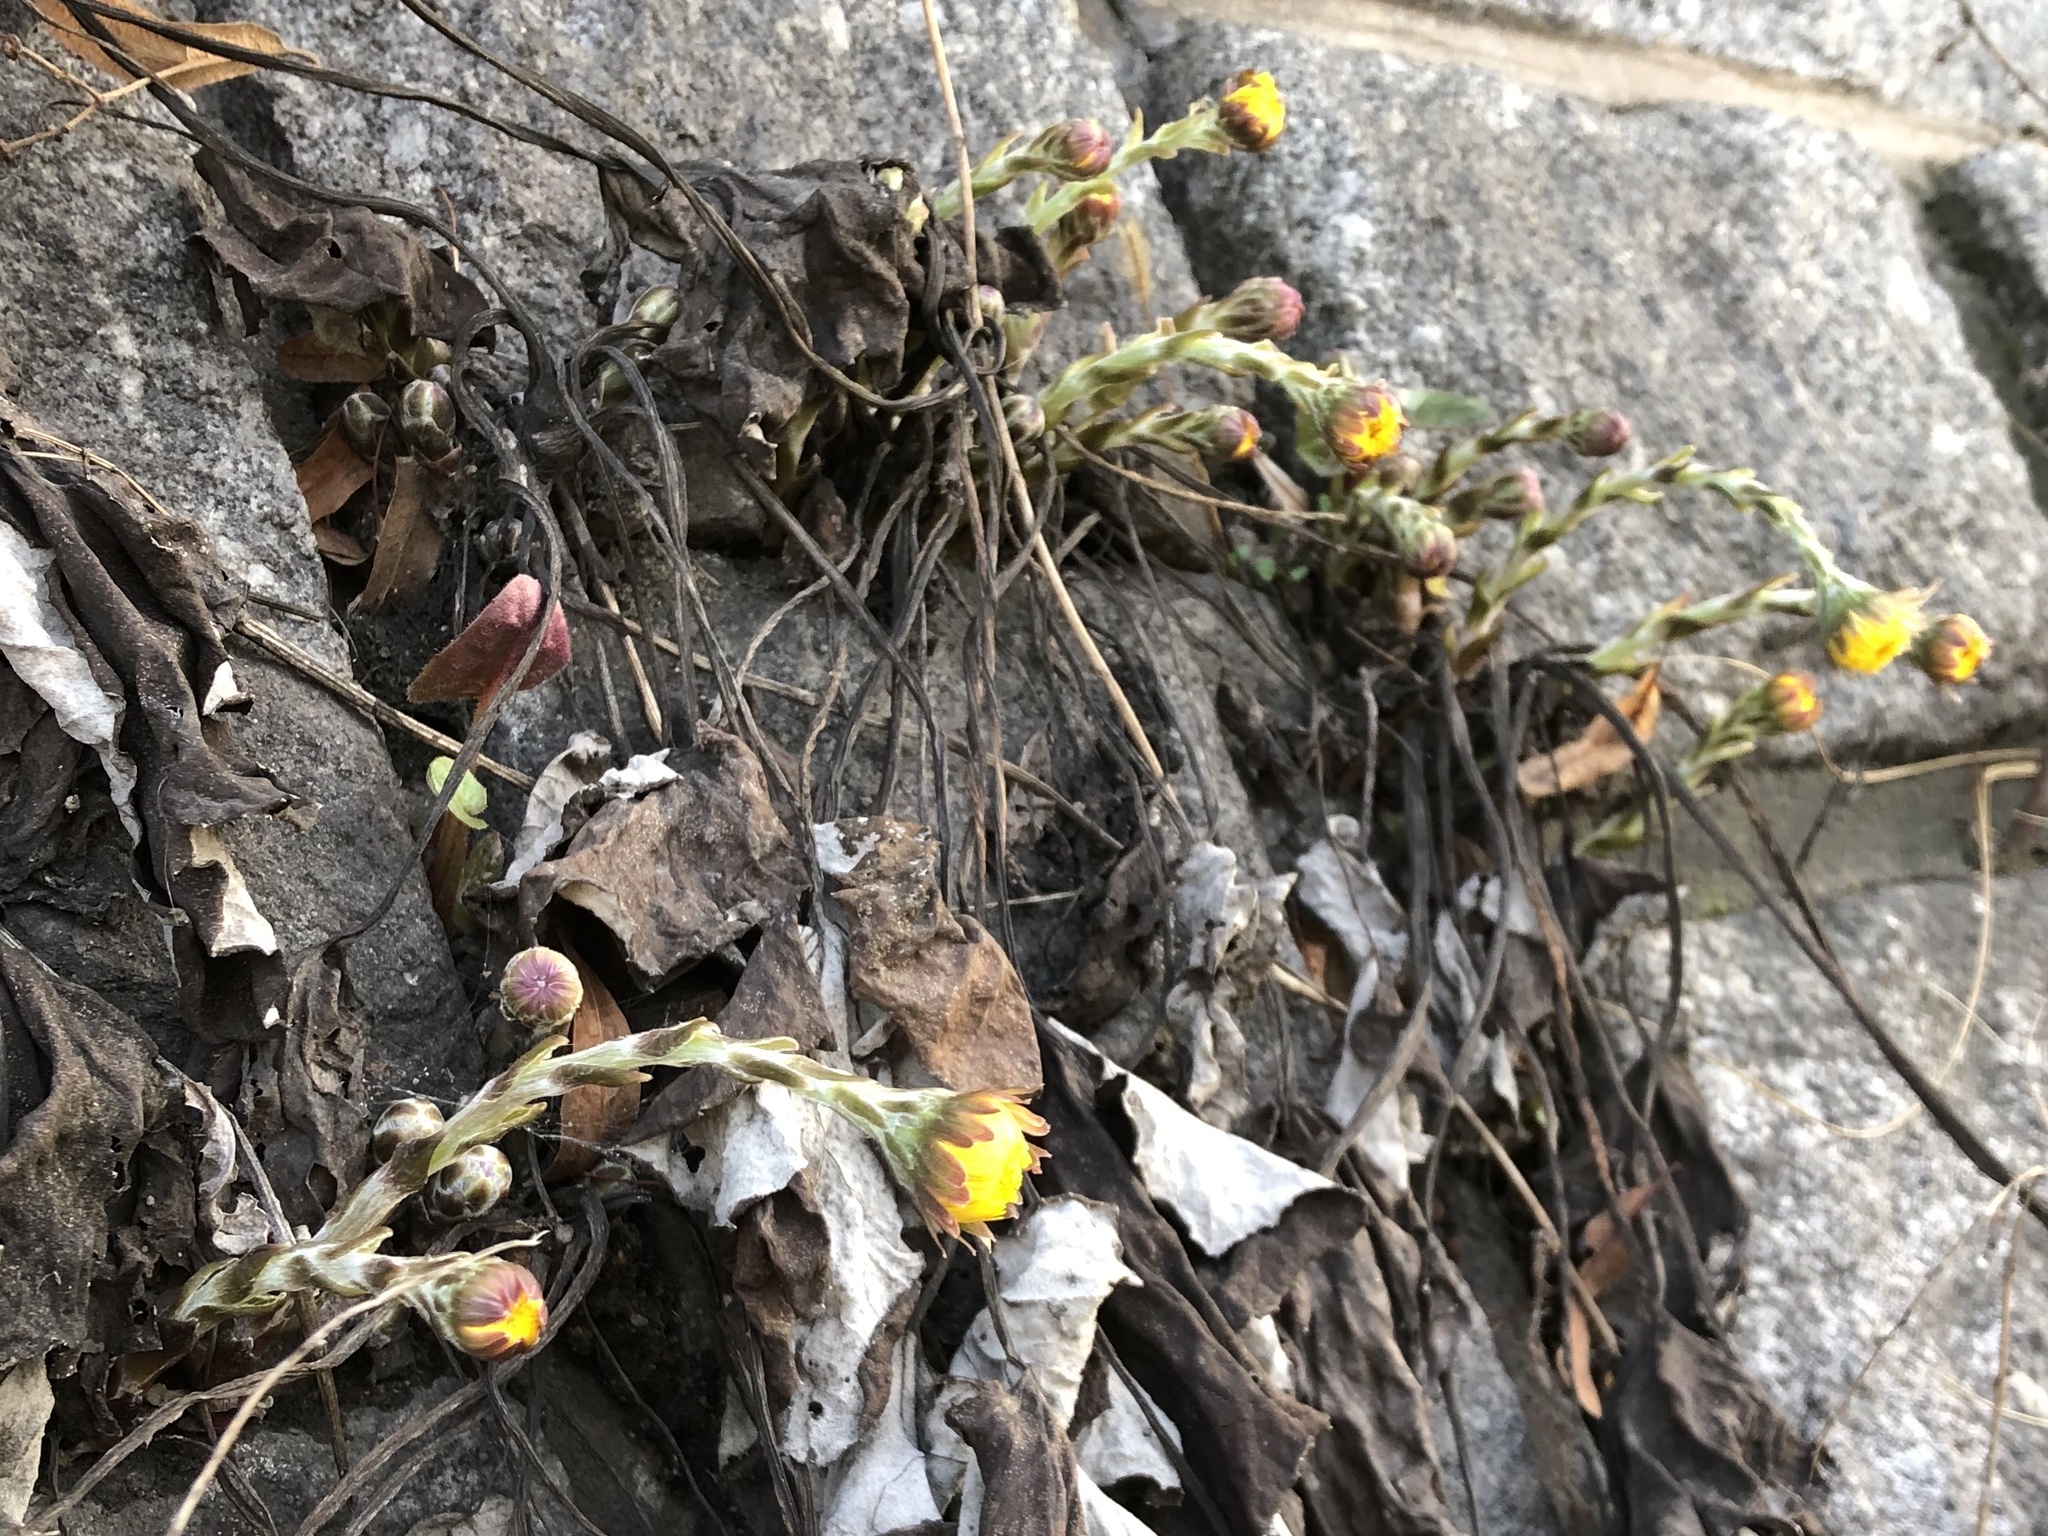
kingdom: Plantae
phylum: Tracheophyta
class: Magnoliopsida
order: Asterales
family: Asteraceae
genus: Tussilago
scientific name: Tussilago farfara
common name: Coltsfoot
